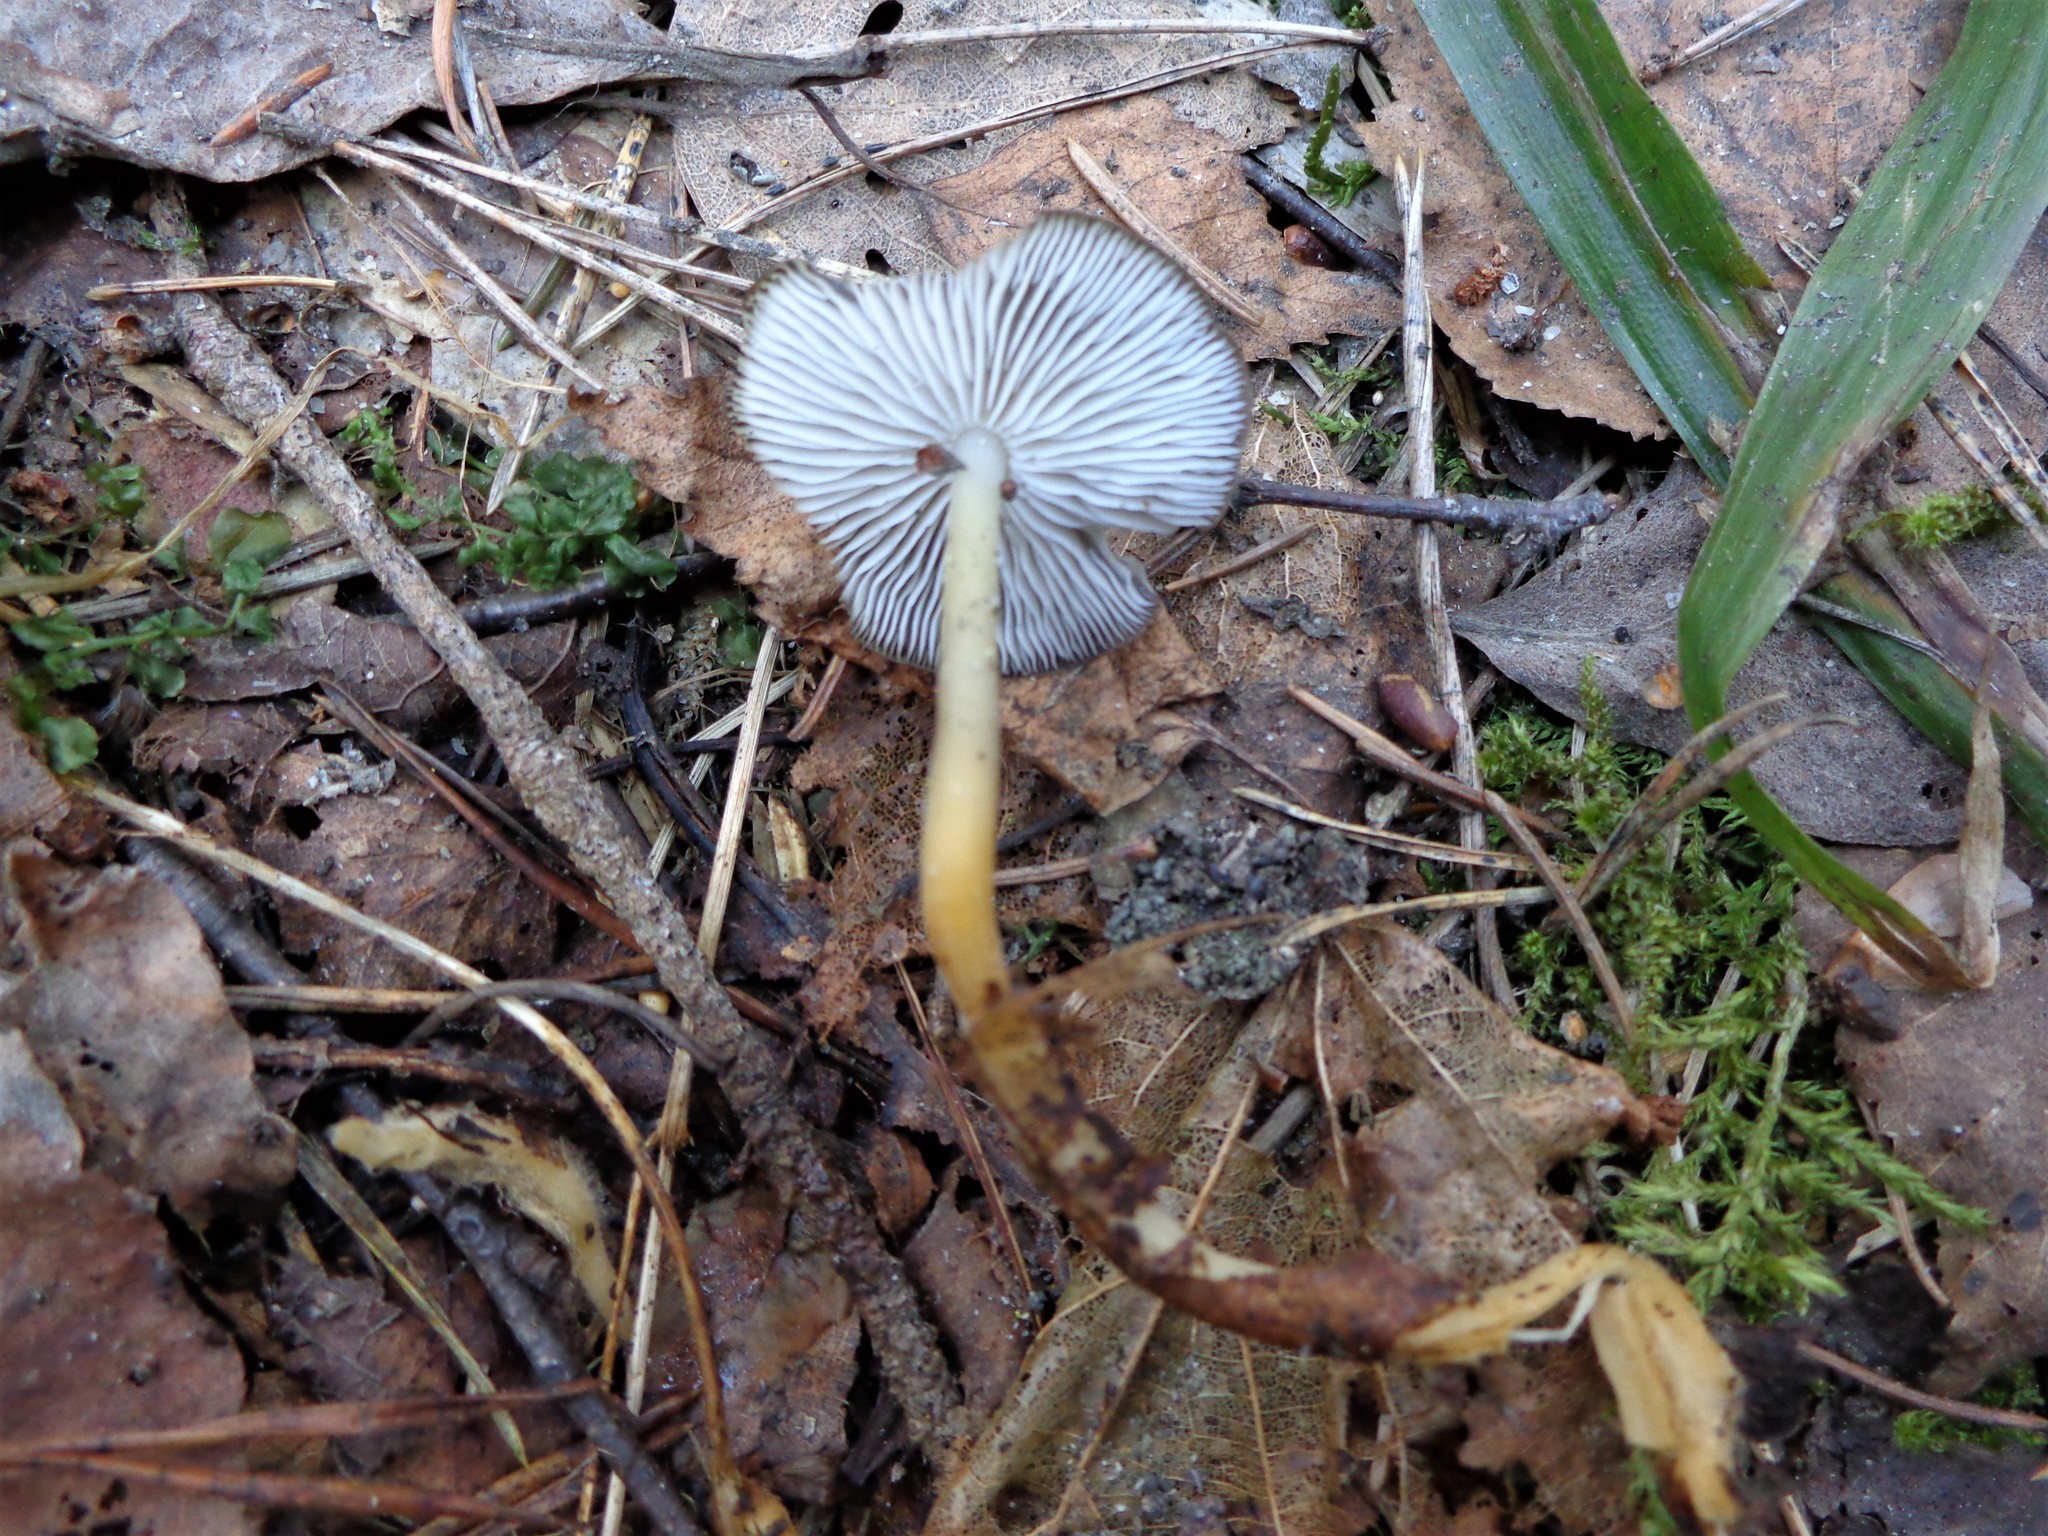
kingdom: Fungi
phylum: Basidiomycota
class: Agaricomycetes
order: Agaricales
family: Physalacriaceae
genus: Strobilurus
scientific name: Strobilurus
